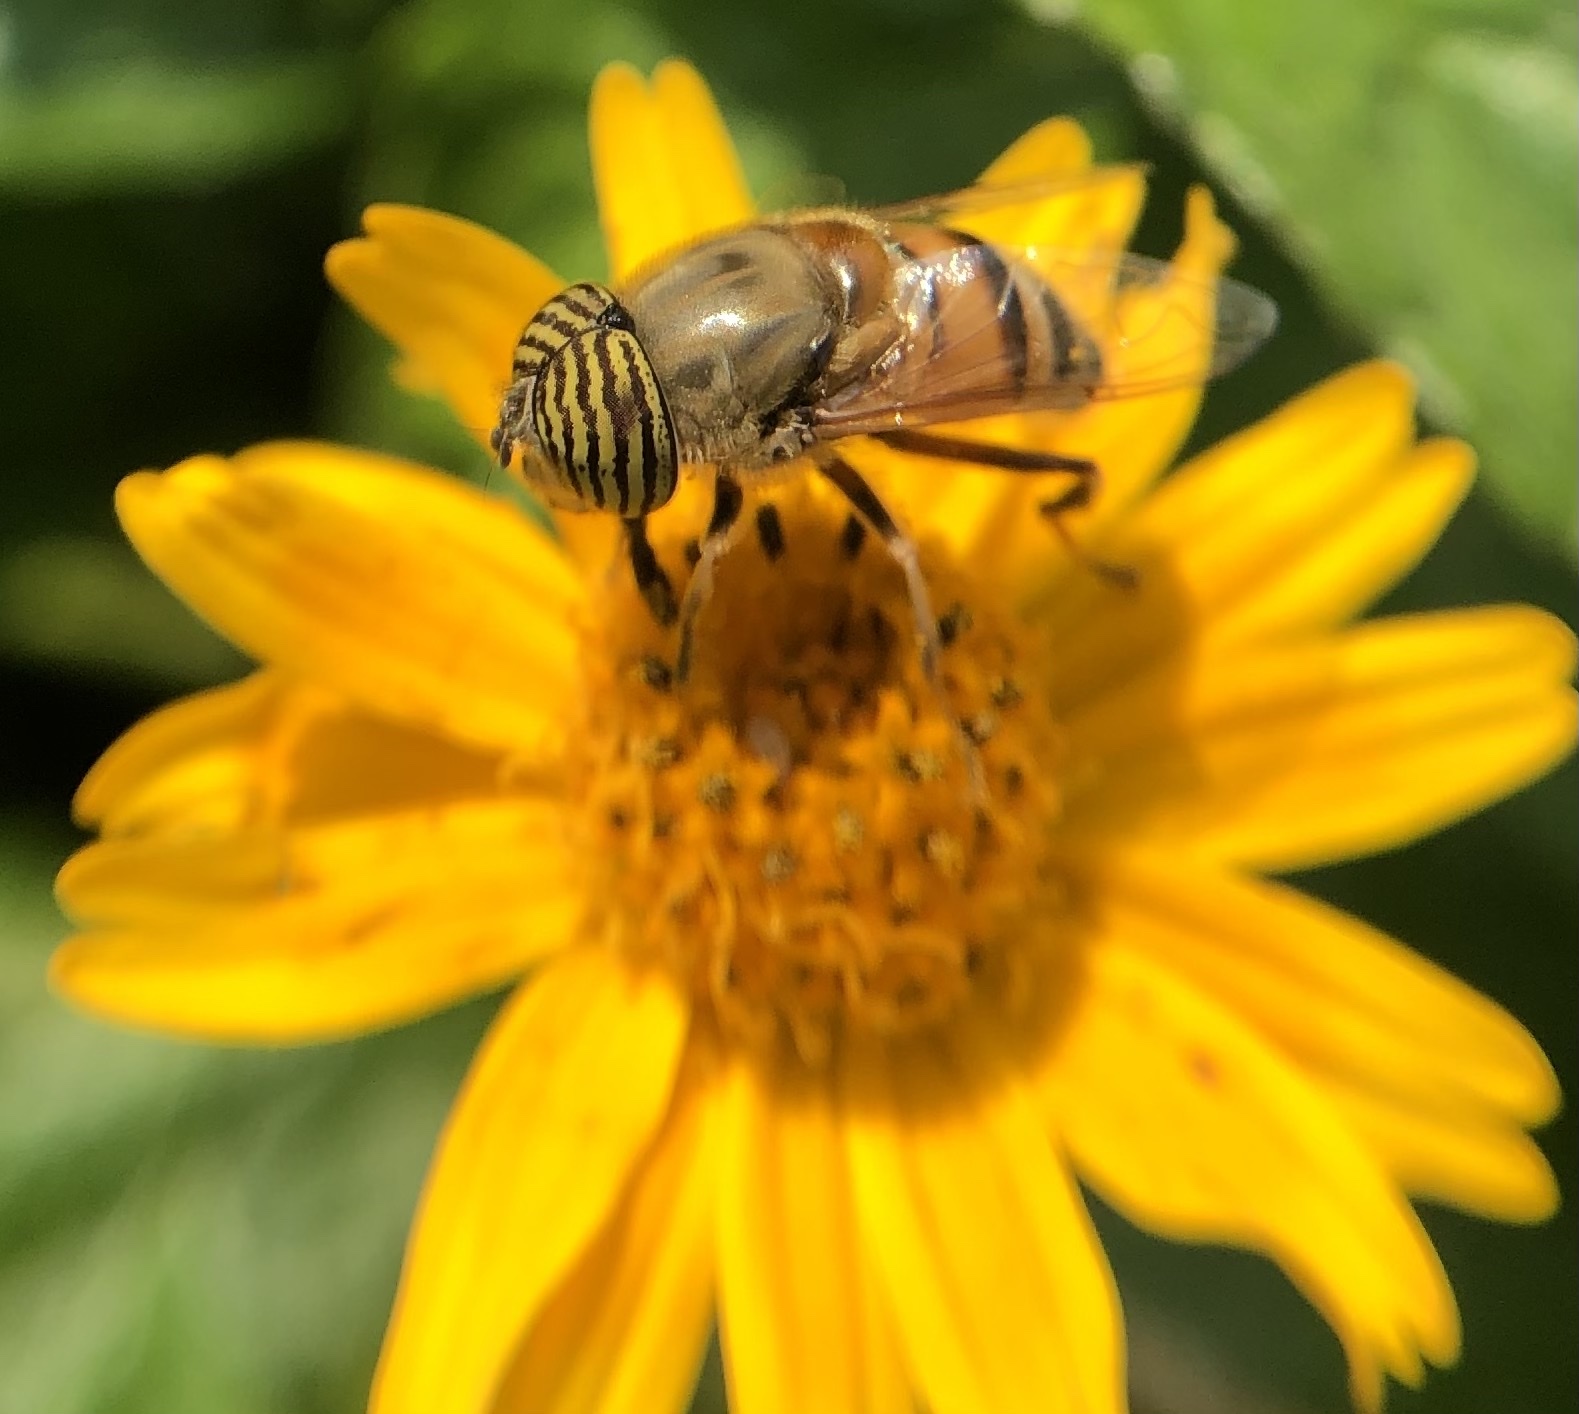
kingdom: Animalia
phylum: Arthropoda
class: Insecta
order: Diptera
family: Syrphidae
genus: Eristalinus
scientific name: Eristalinus taeniops
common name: Syrphid fly
